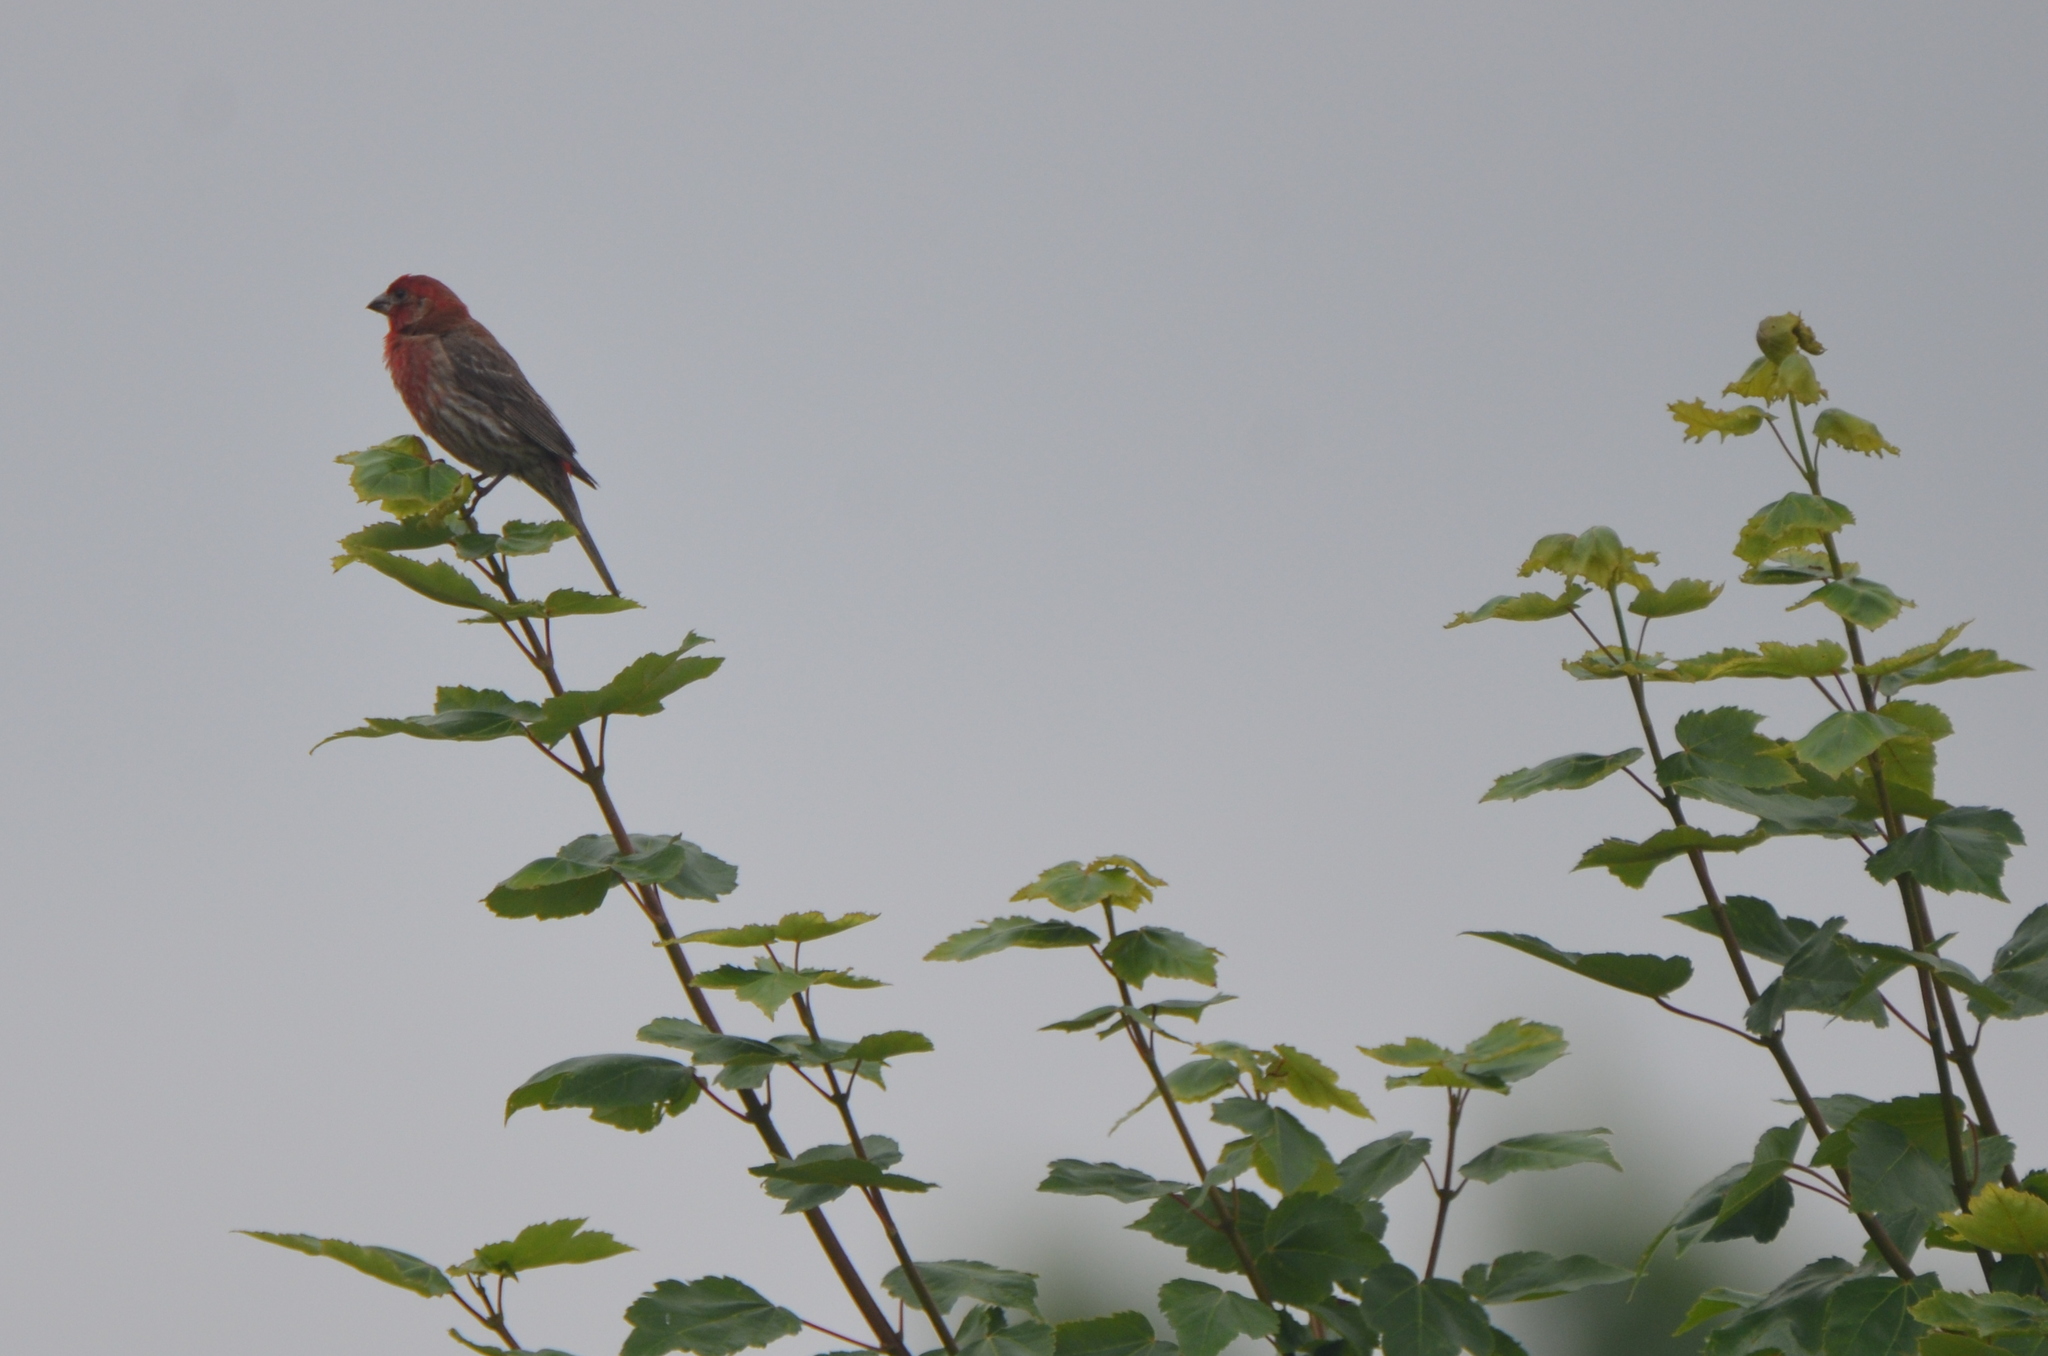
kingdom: Animalia
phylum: Chordata
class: Aves
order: Passeriformes
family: Fringillidae
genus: Haemorhous
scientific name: Haemorhous mexicanus
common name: House finch
